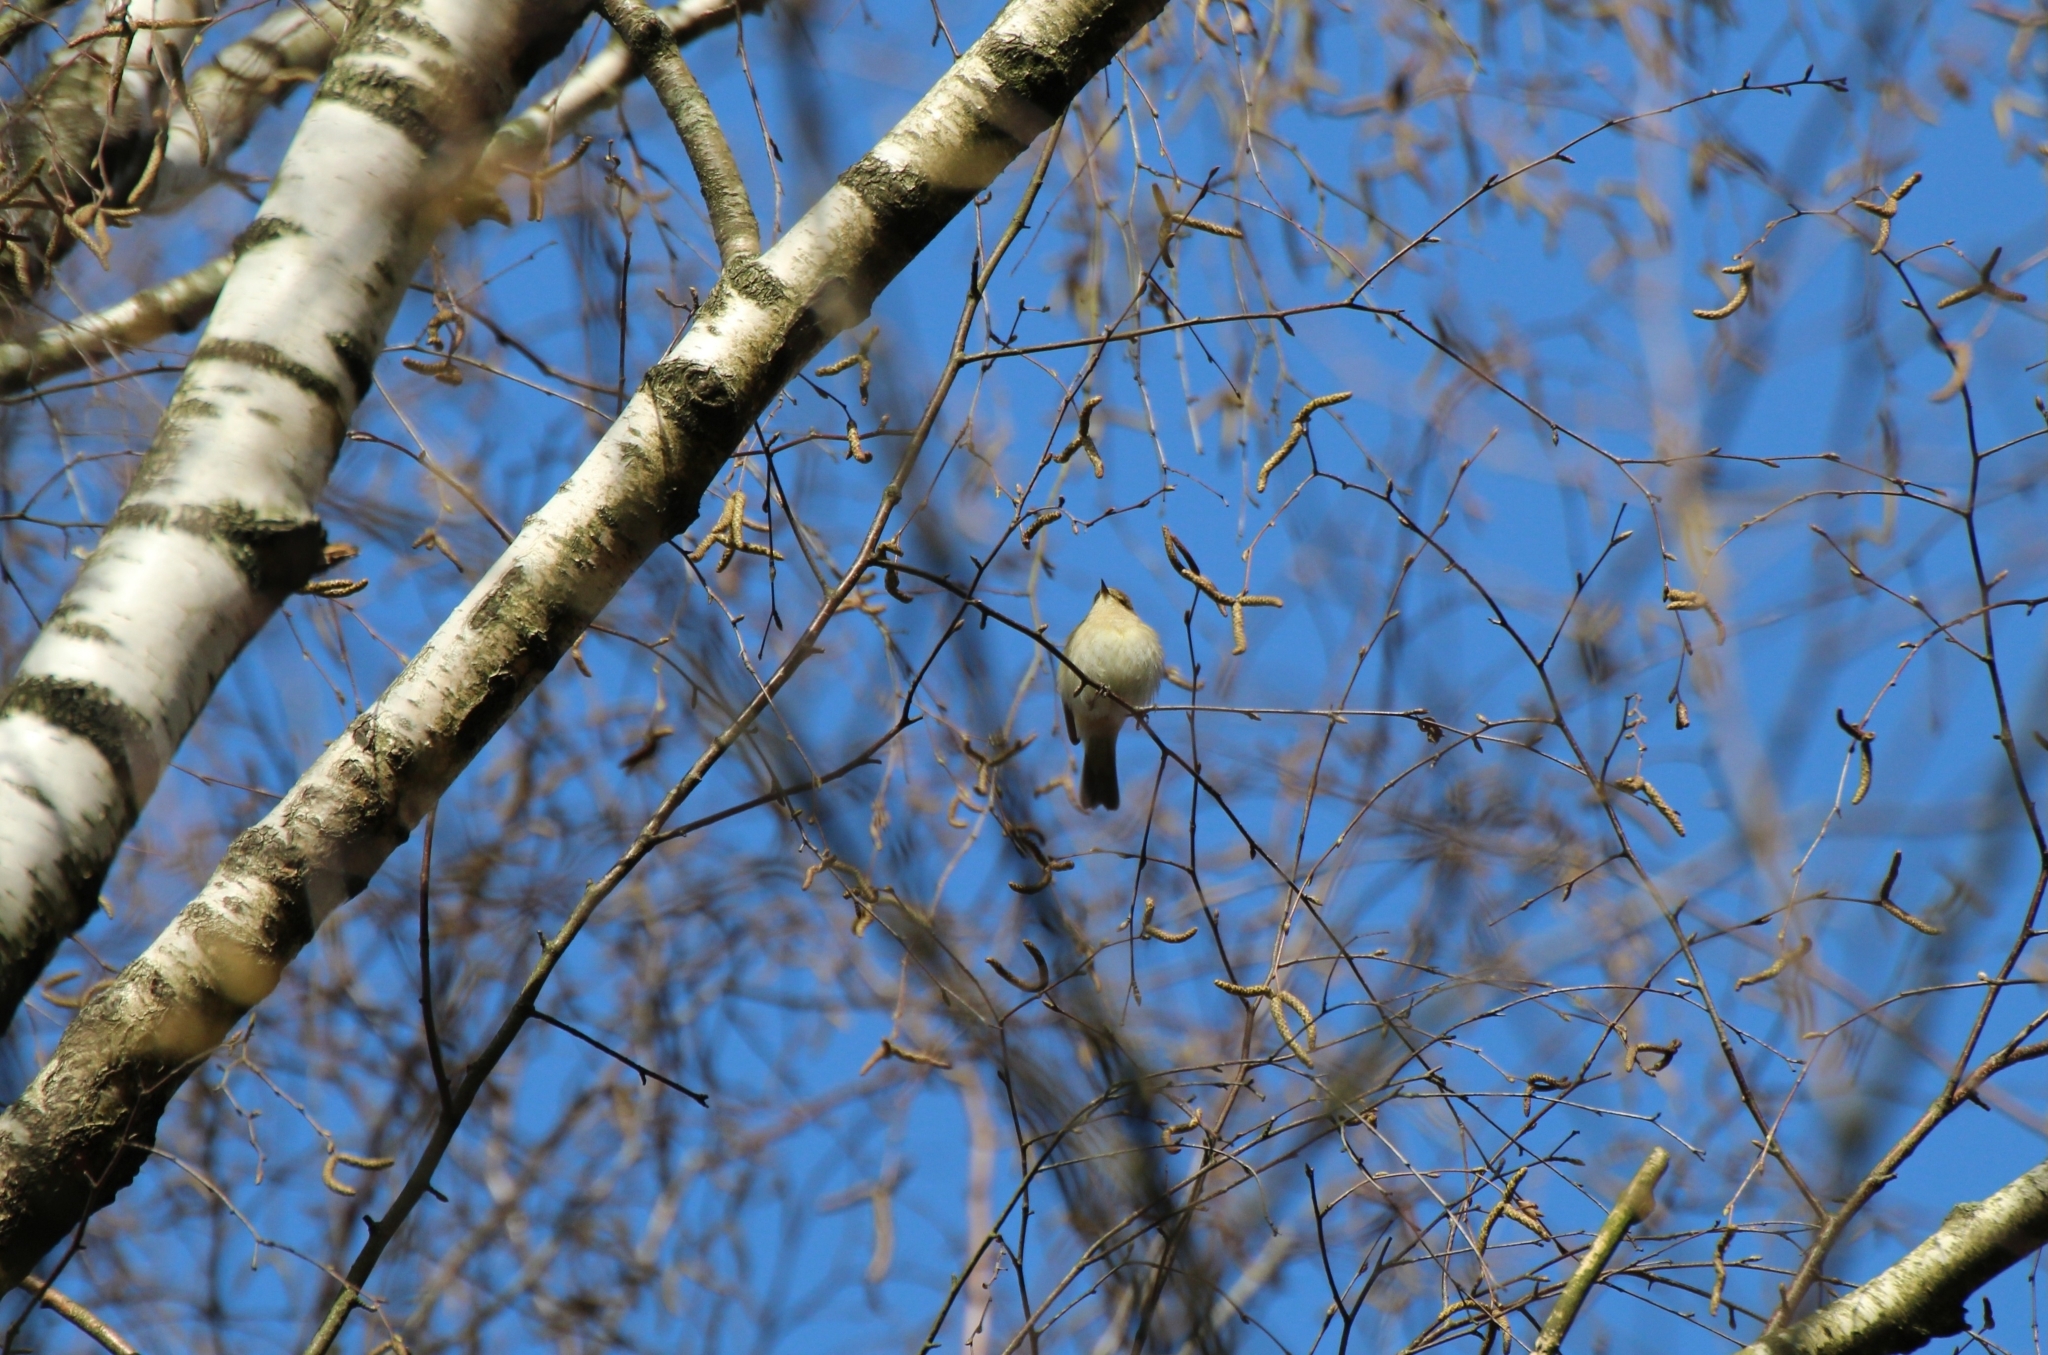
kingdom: Animalia
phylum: Chordata
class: Aves
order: Passeriformes
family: Phylloscopidae
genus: Phylloscopus
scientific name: Phylloscopus collybita
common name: Common chiffchaff
